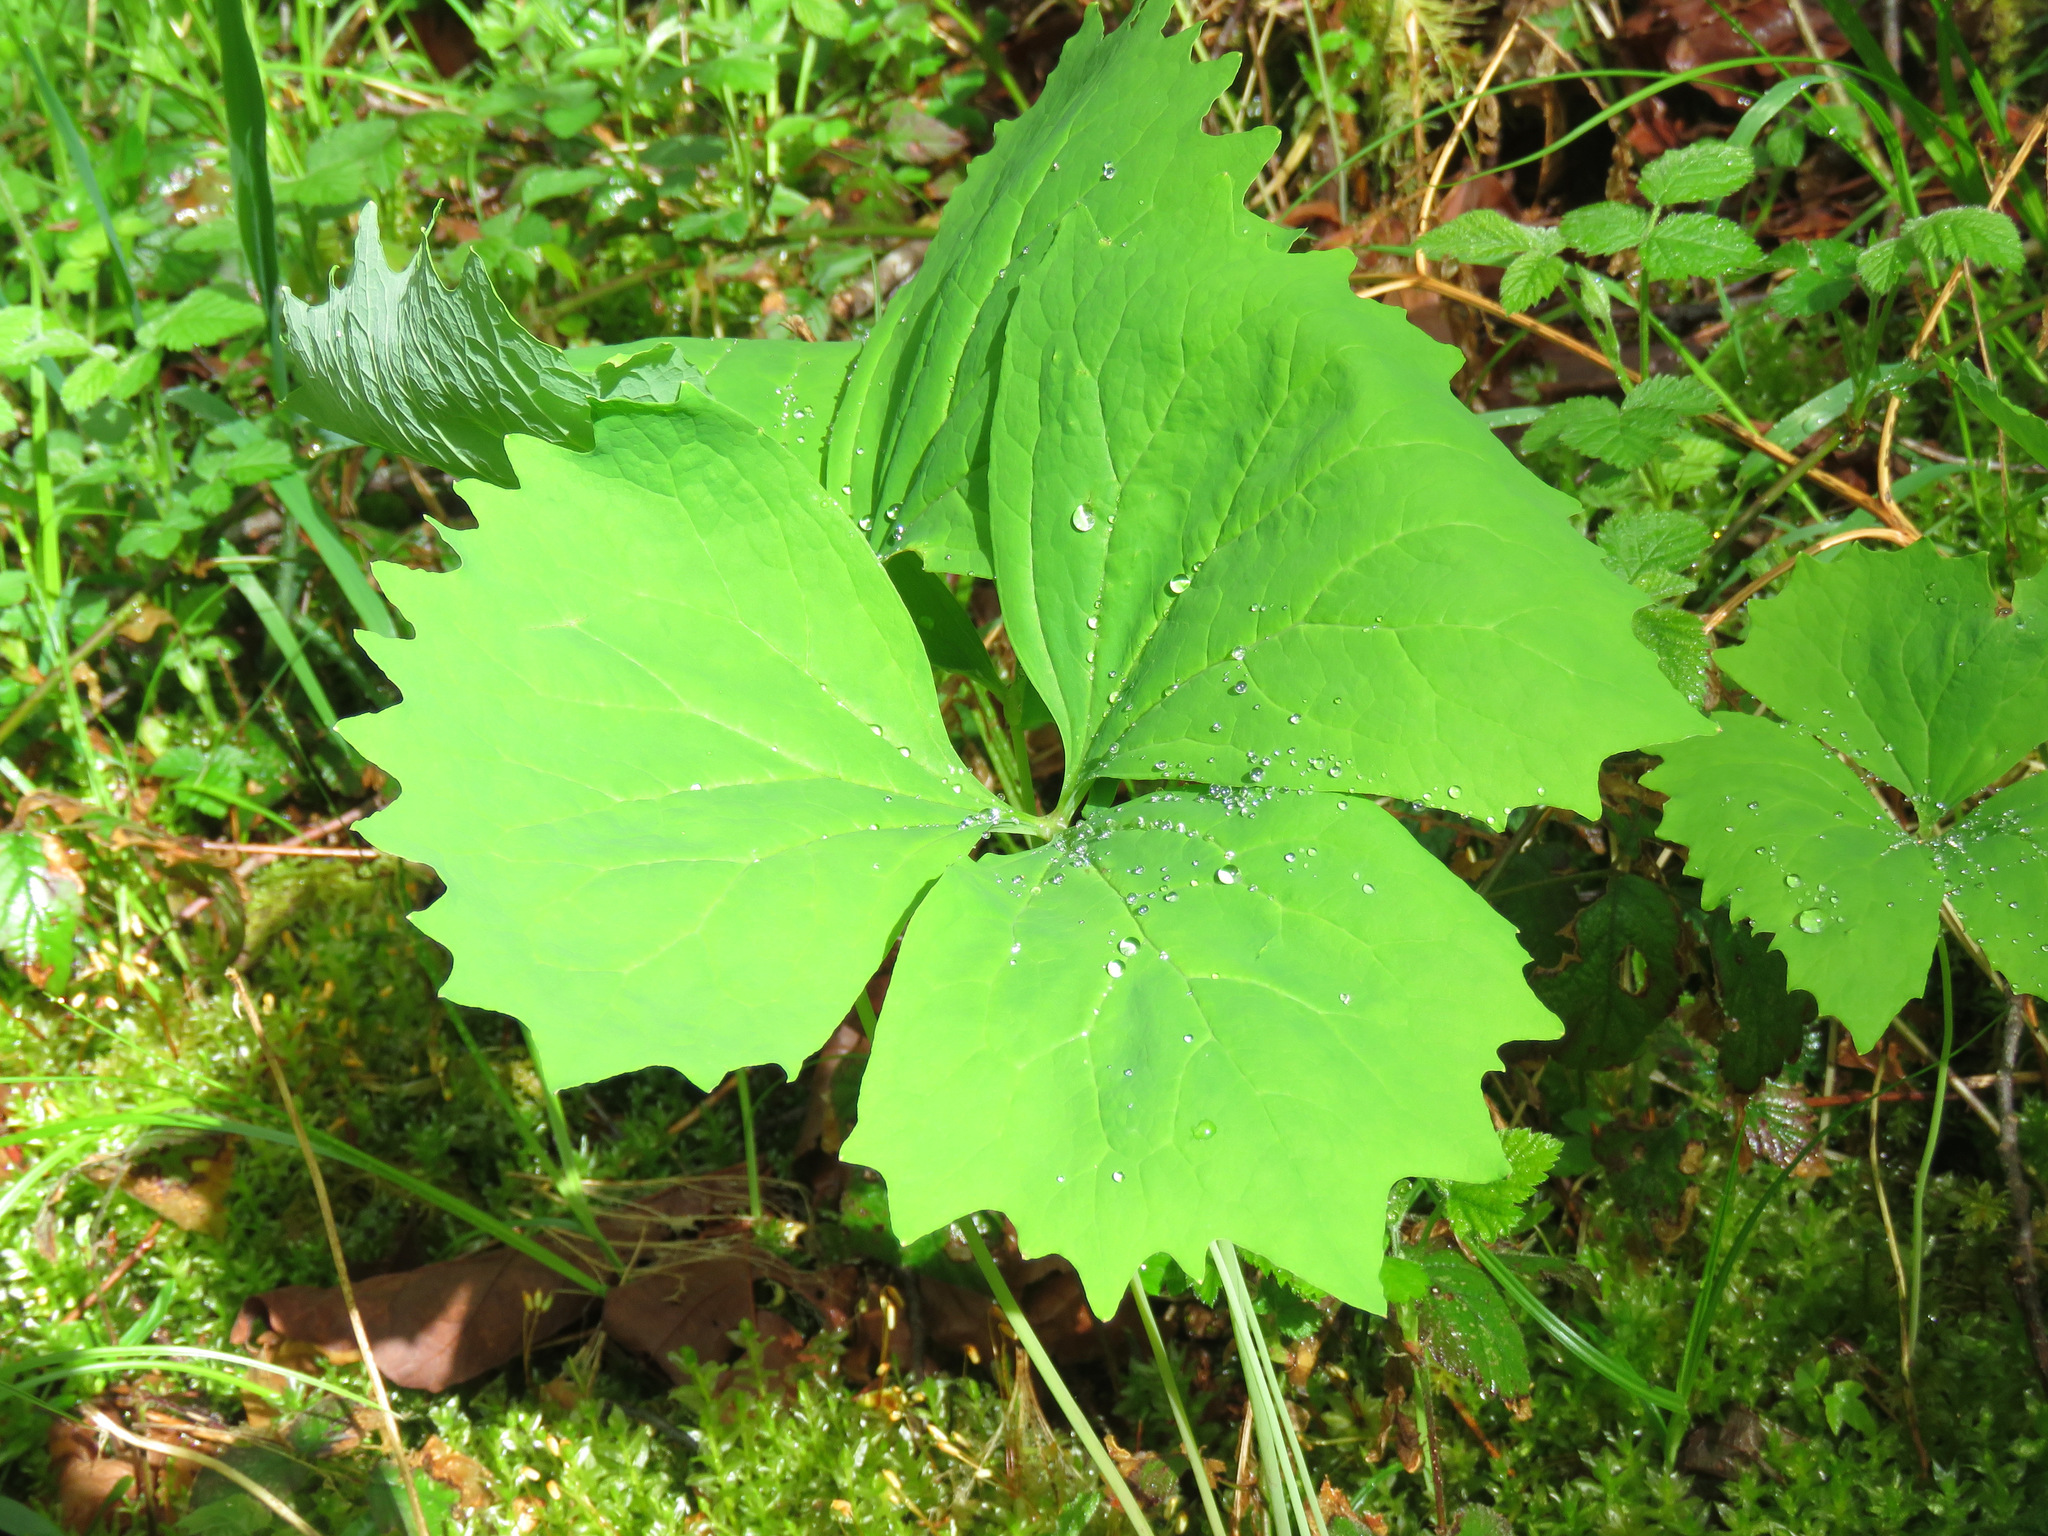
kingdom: Plantae
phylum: Tracheophyta
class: Magnoliopsida
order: Ranunculales
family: Berberidaceae
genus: Achlys
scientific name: Achlys triphylla
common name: Vanilla-leaf
